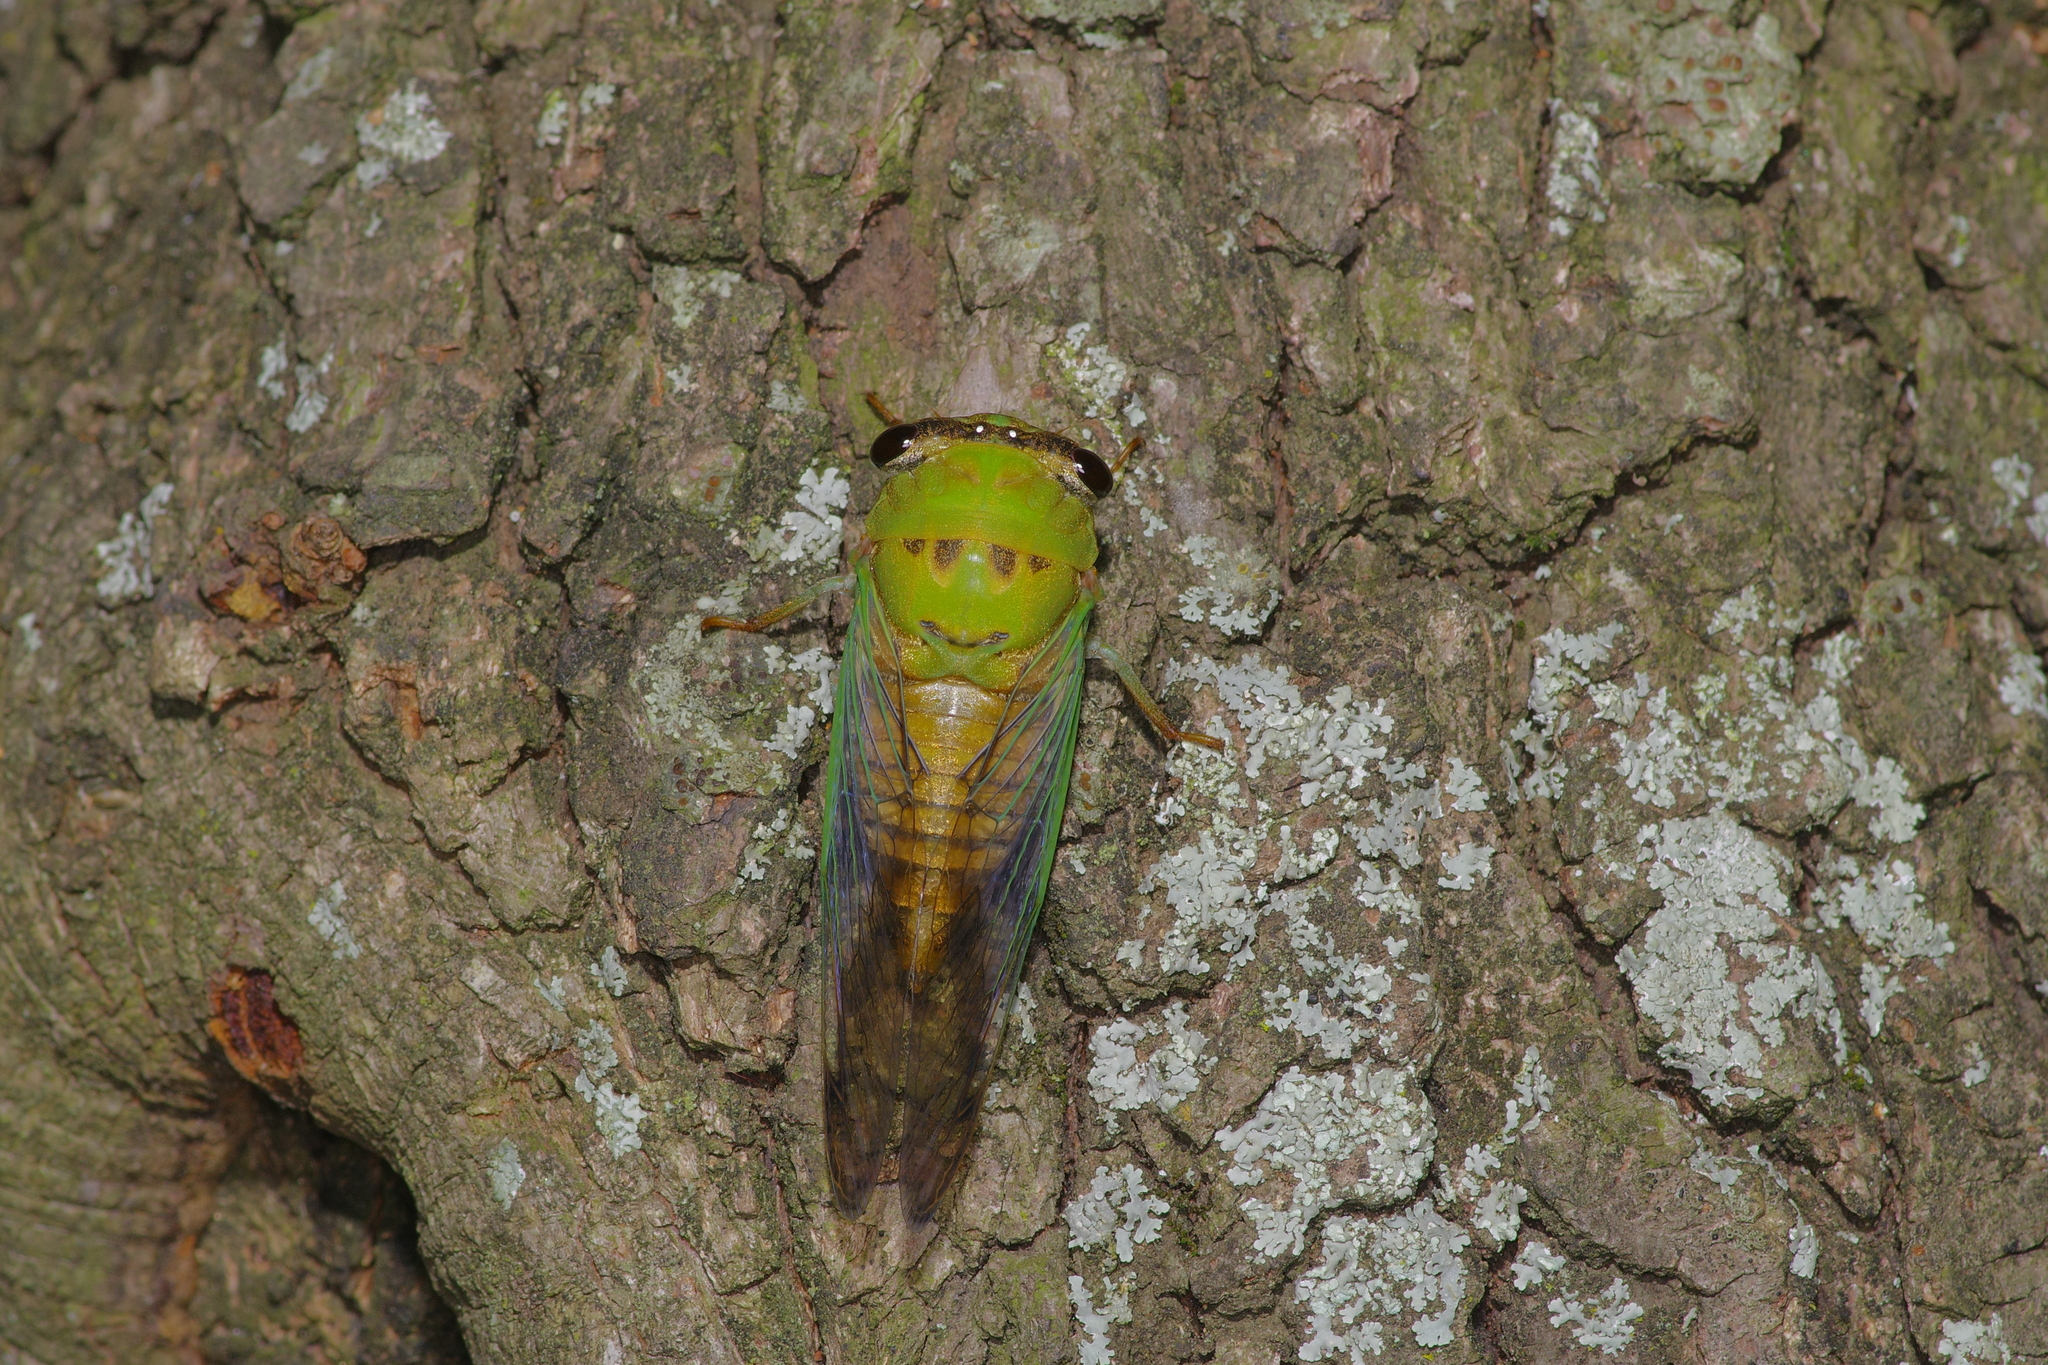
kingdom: Animalia
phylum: Arthropoda
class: Insecta
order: Hemiptera
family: Cicadidae
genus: Neotibicen
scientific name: Neotibicen superbus
